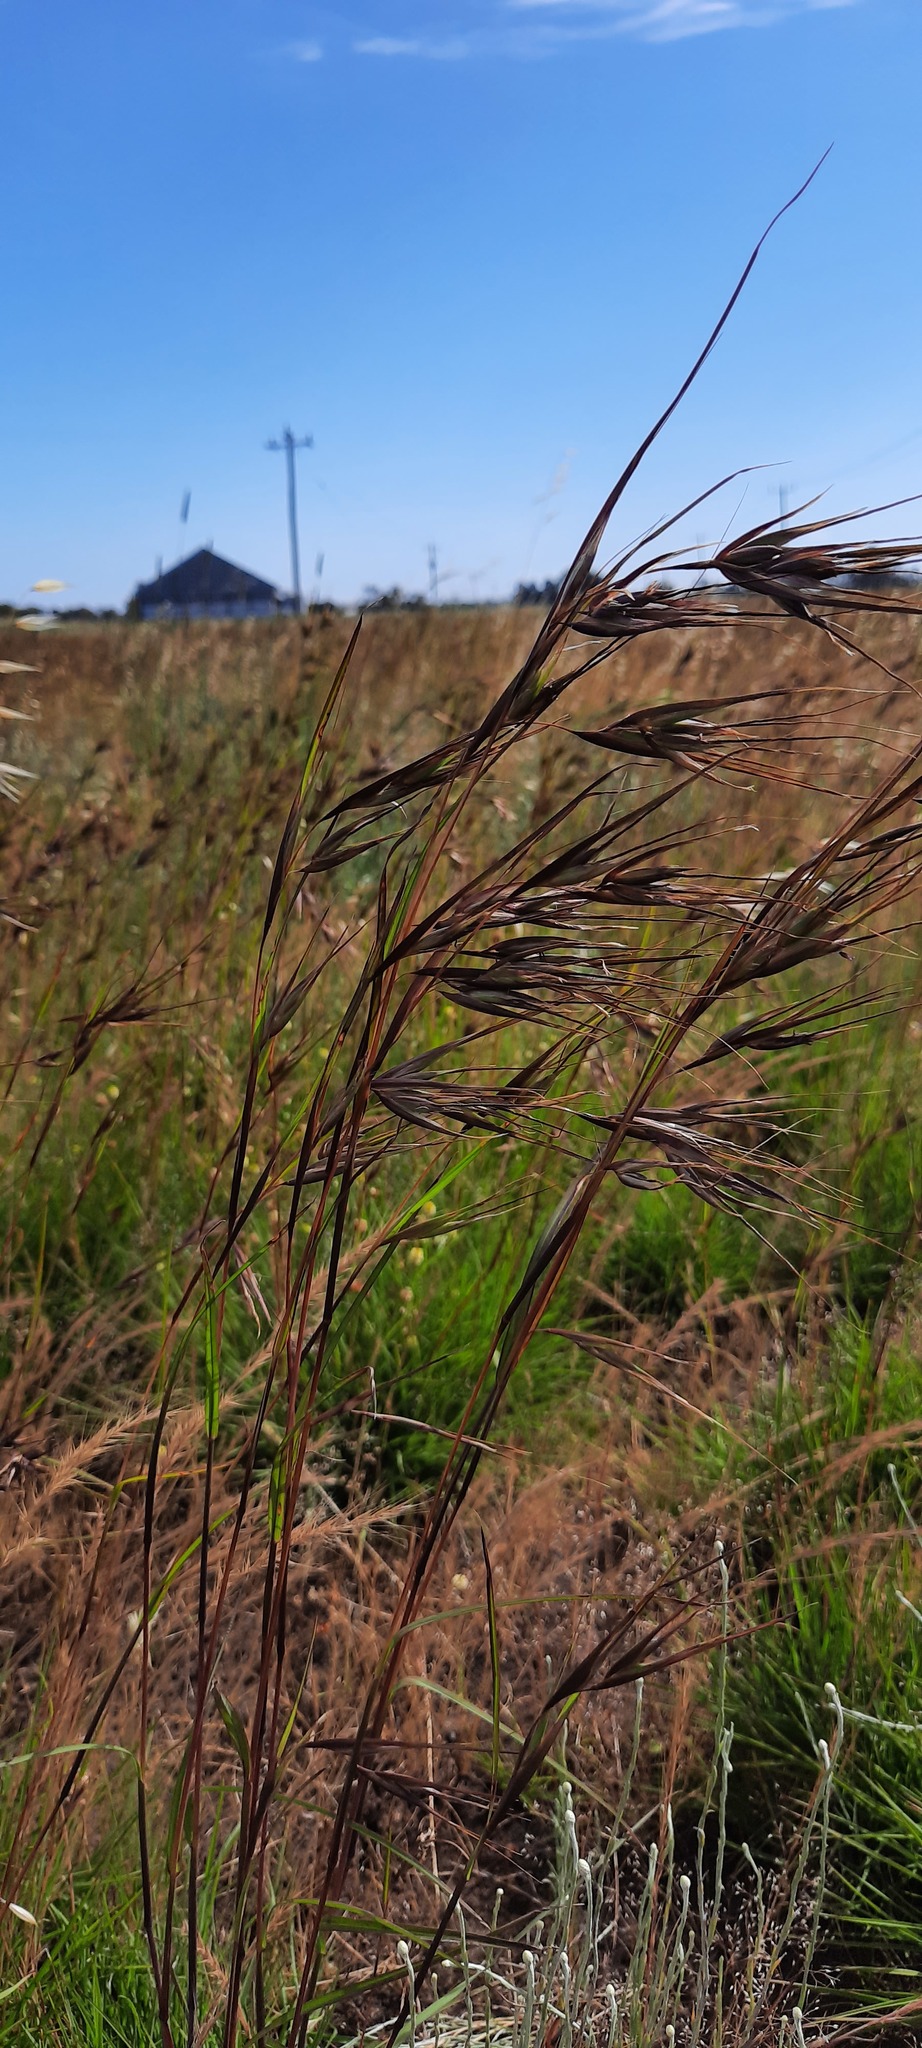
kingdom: Plantae
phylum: Tracheophyta
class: Liliopsida
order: Poales
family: Poaceae
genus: Themeda
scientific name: Themeda triandra
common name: Kangaroo grass
